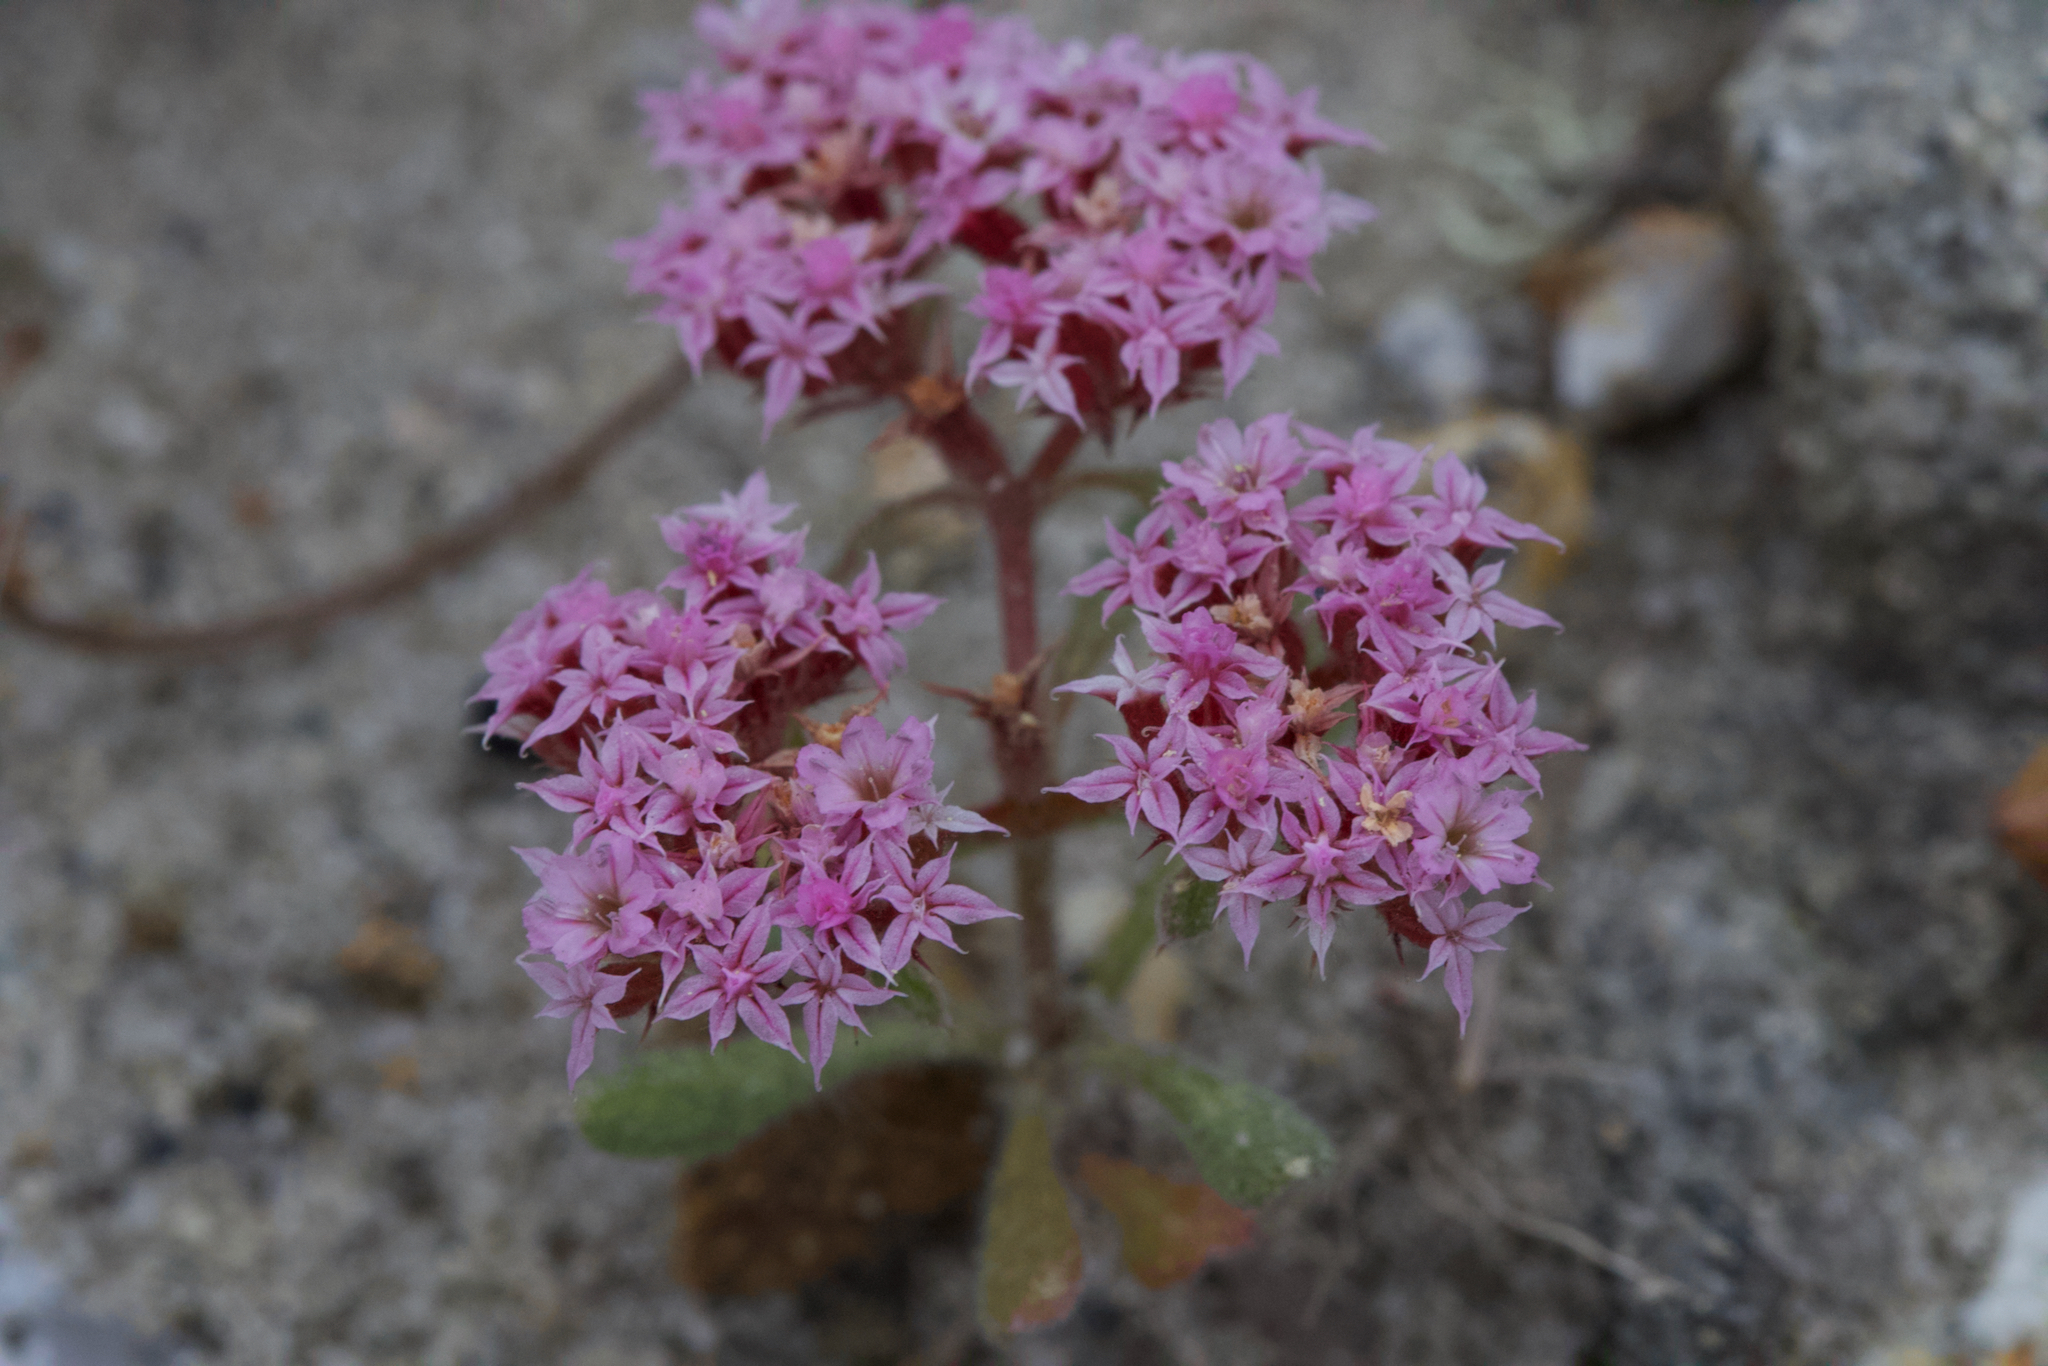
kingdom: Plantae
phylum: Tracheophyta
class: Magnoliopsida
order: Caryophyllales
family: Polygonaceae
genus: Chorizanthe
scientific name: Chorizanthe pungens
